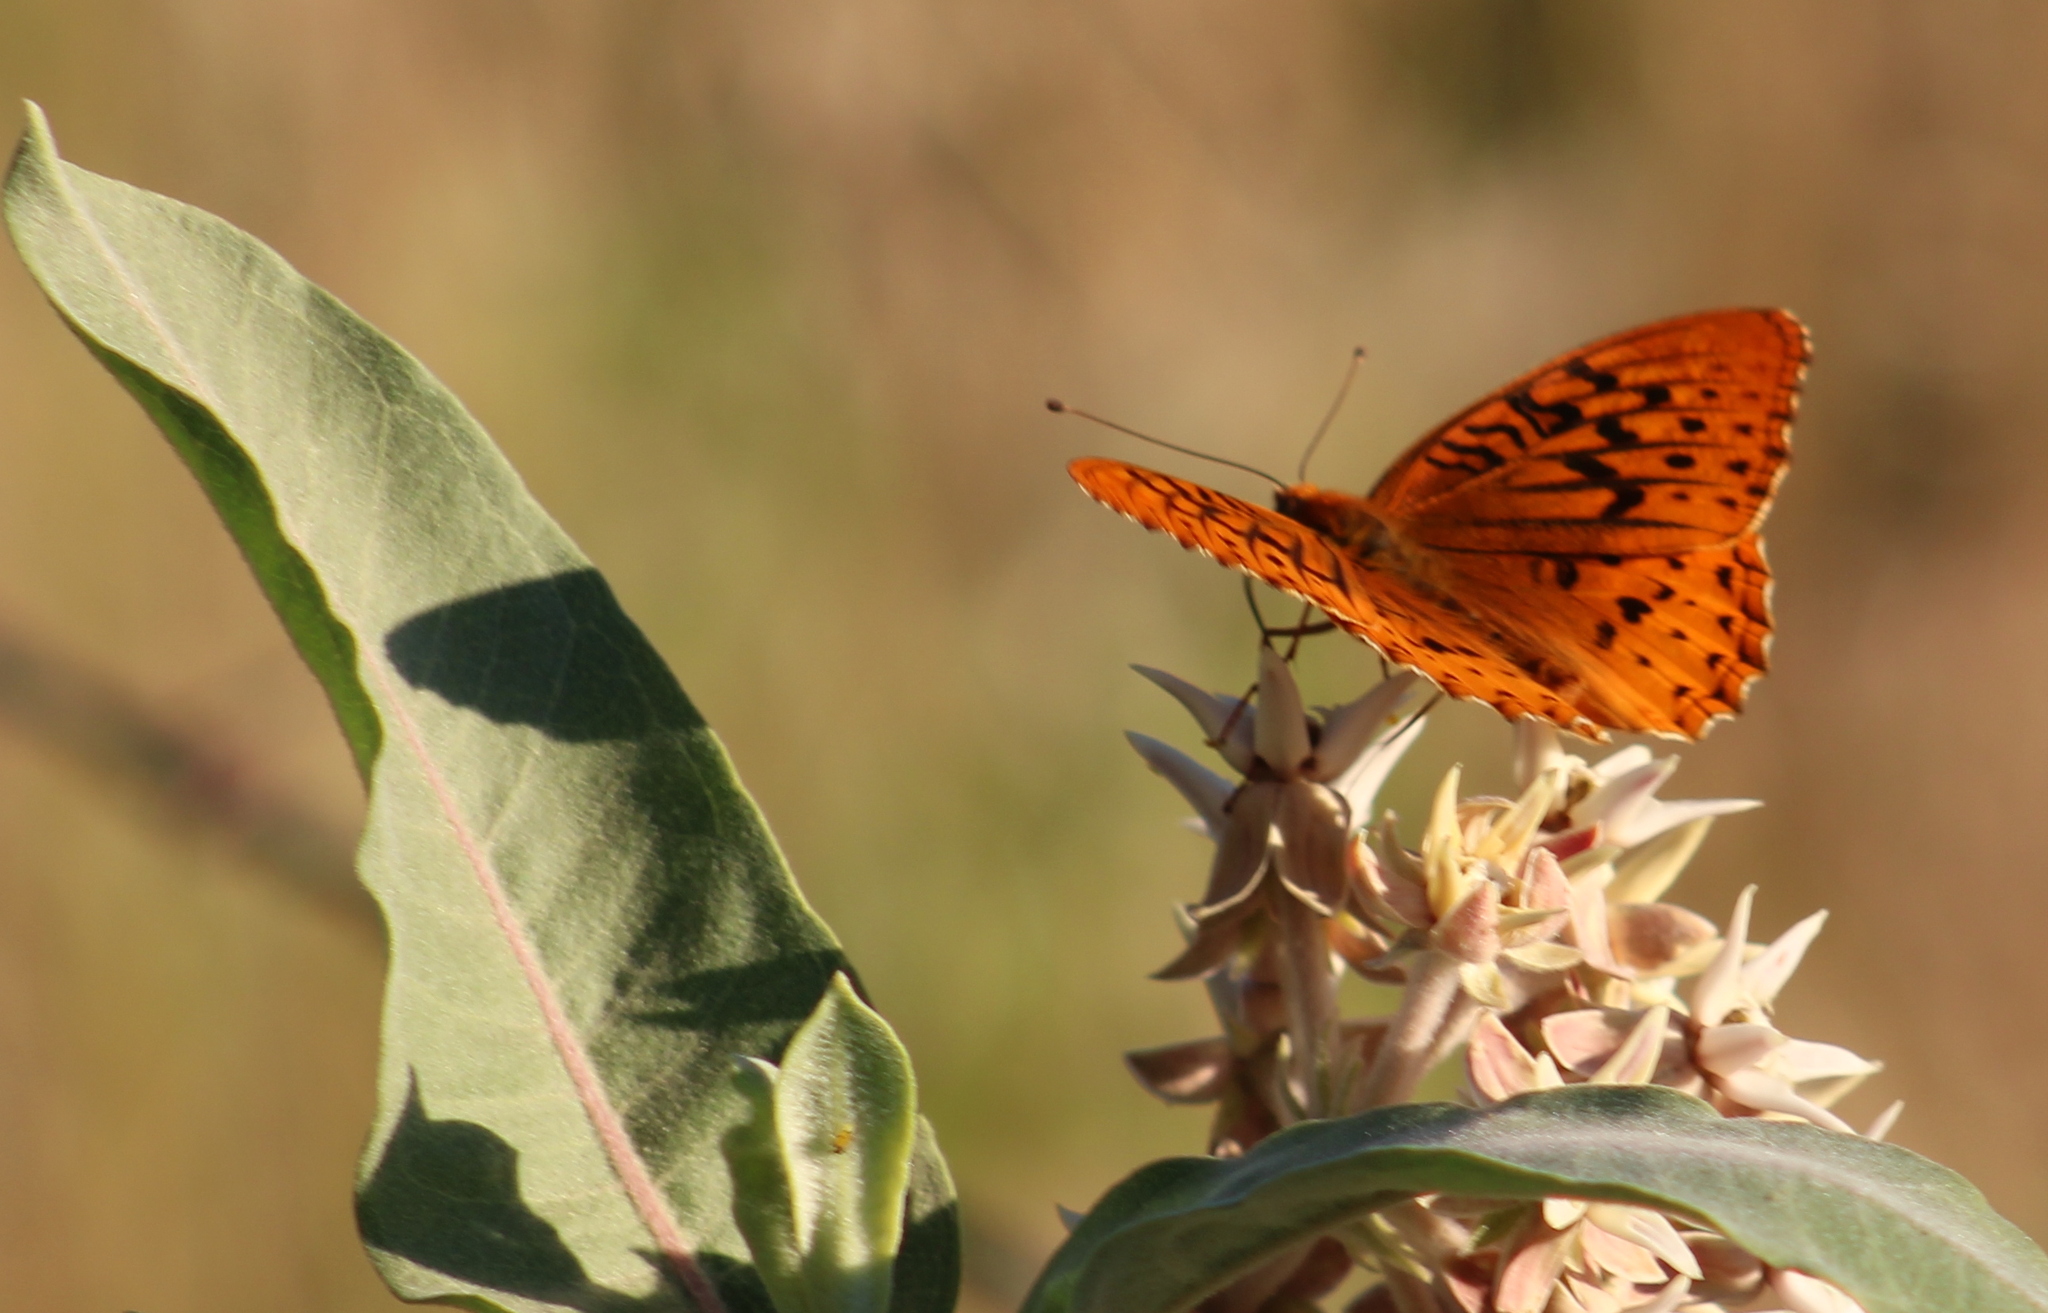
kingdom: Animalia
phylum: Arthropoda
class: Insecta
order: Lepidoptera
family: Nymphalidae
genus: Speyeria
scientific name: Speyeria cybele
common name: Great spangled fritillary
